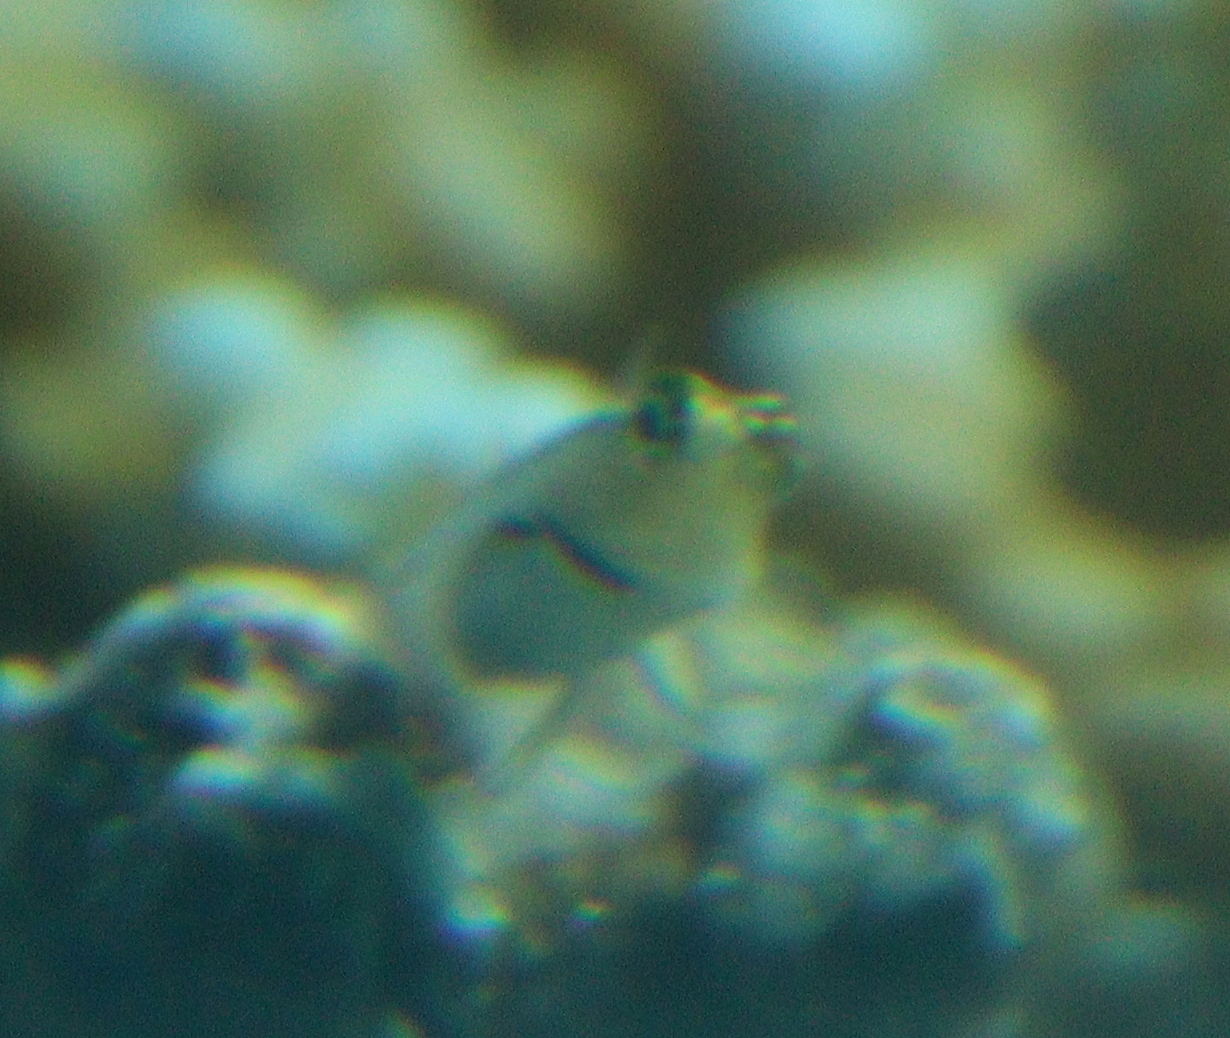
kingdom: Animalia
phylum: Chordata
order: Perciformes
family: Blenniidae
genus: Ecsenius
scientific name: Ecsenius dentex
